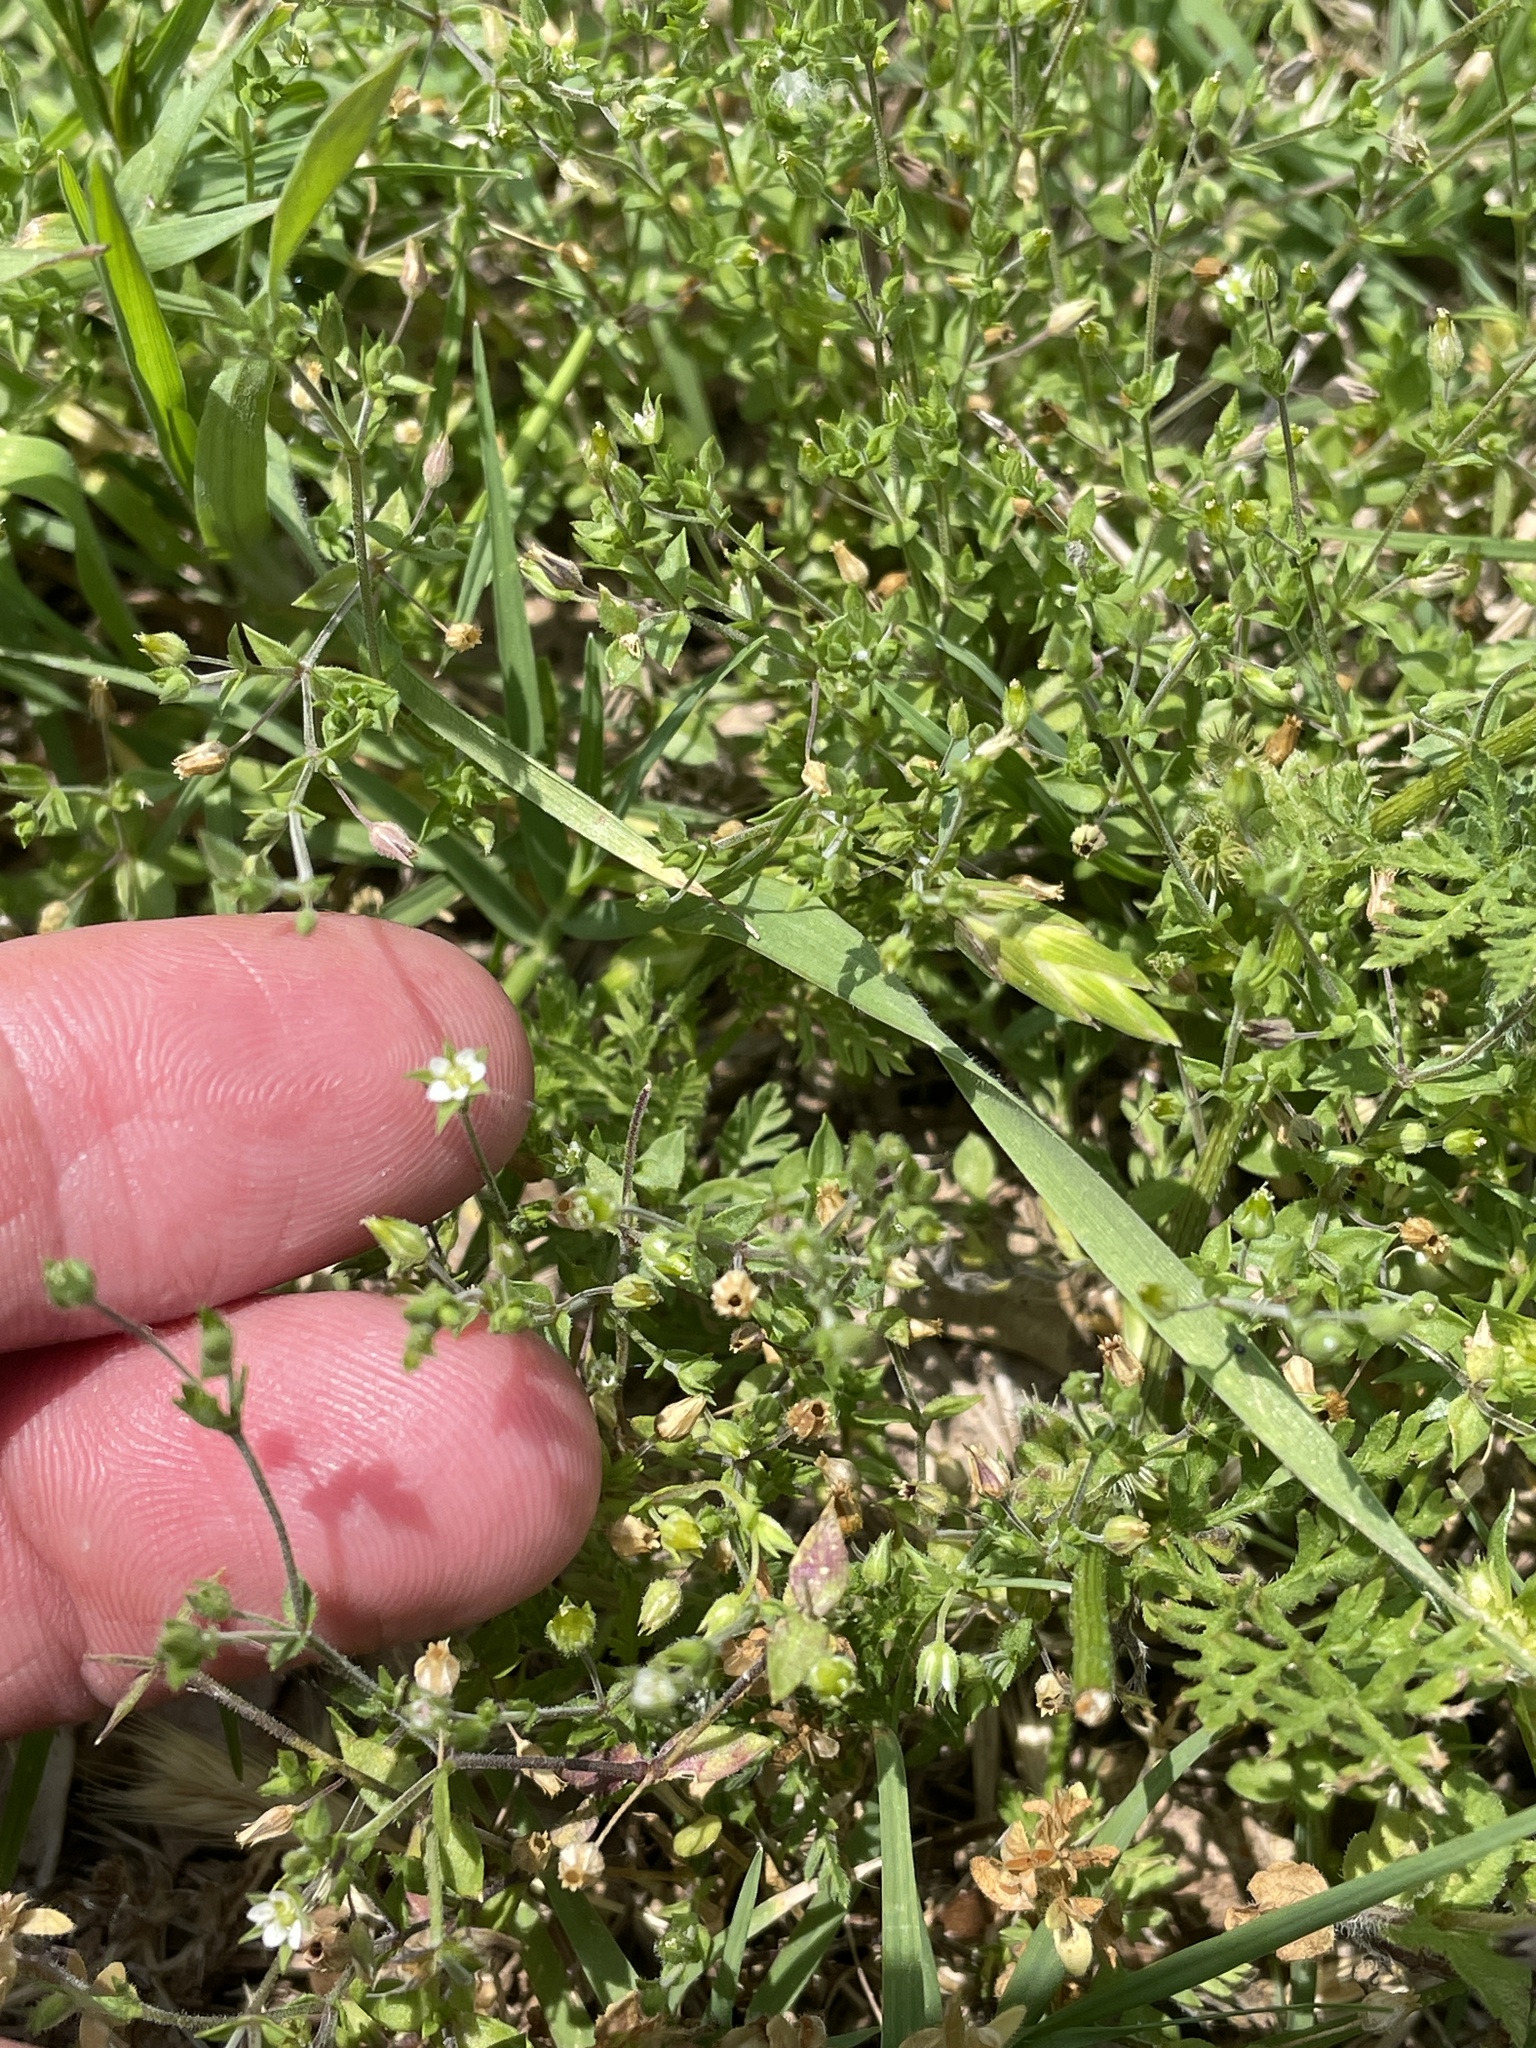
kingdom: Plantae
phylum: Tracheophyta
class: Magnoliopsida
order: Caryophyllales
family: Caryophyllaceae
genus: Arenaria
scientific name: Arenaria serpyllifolia
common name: Thyme-leaved sandwort
